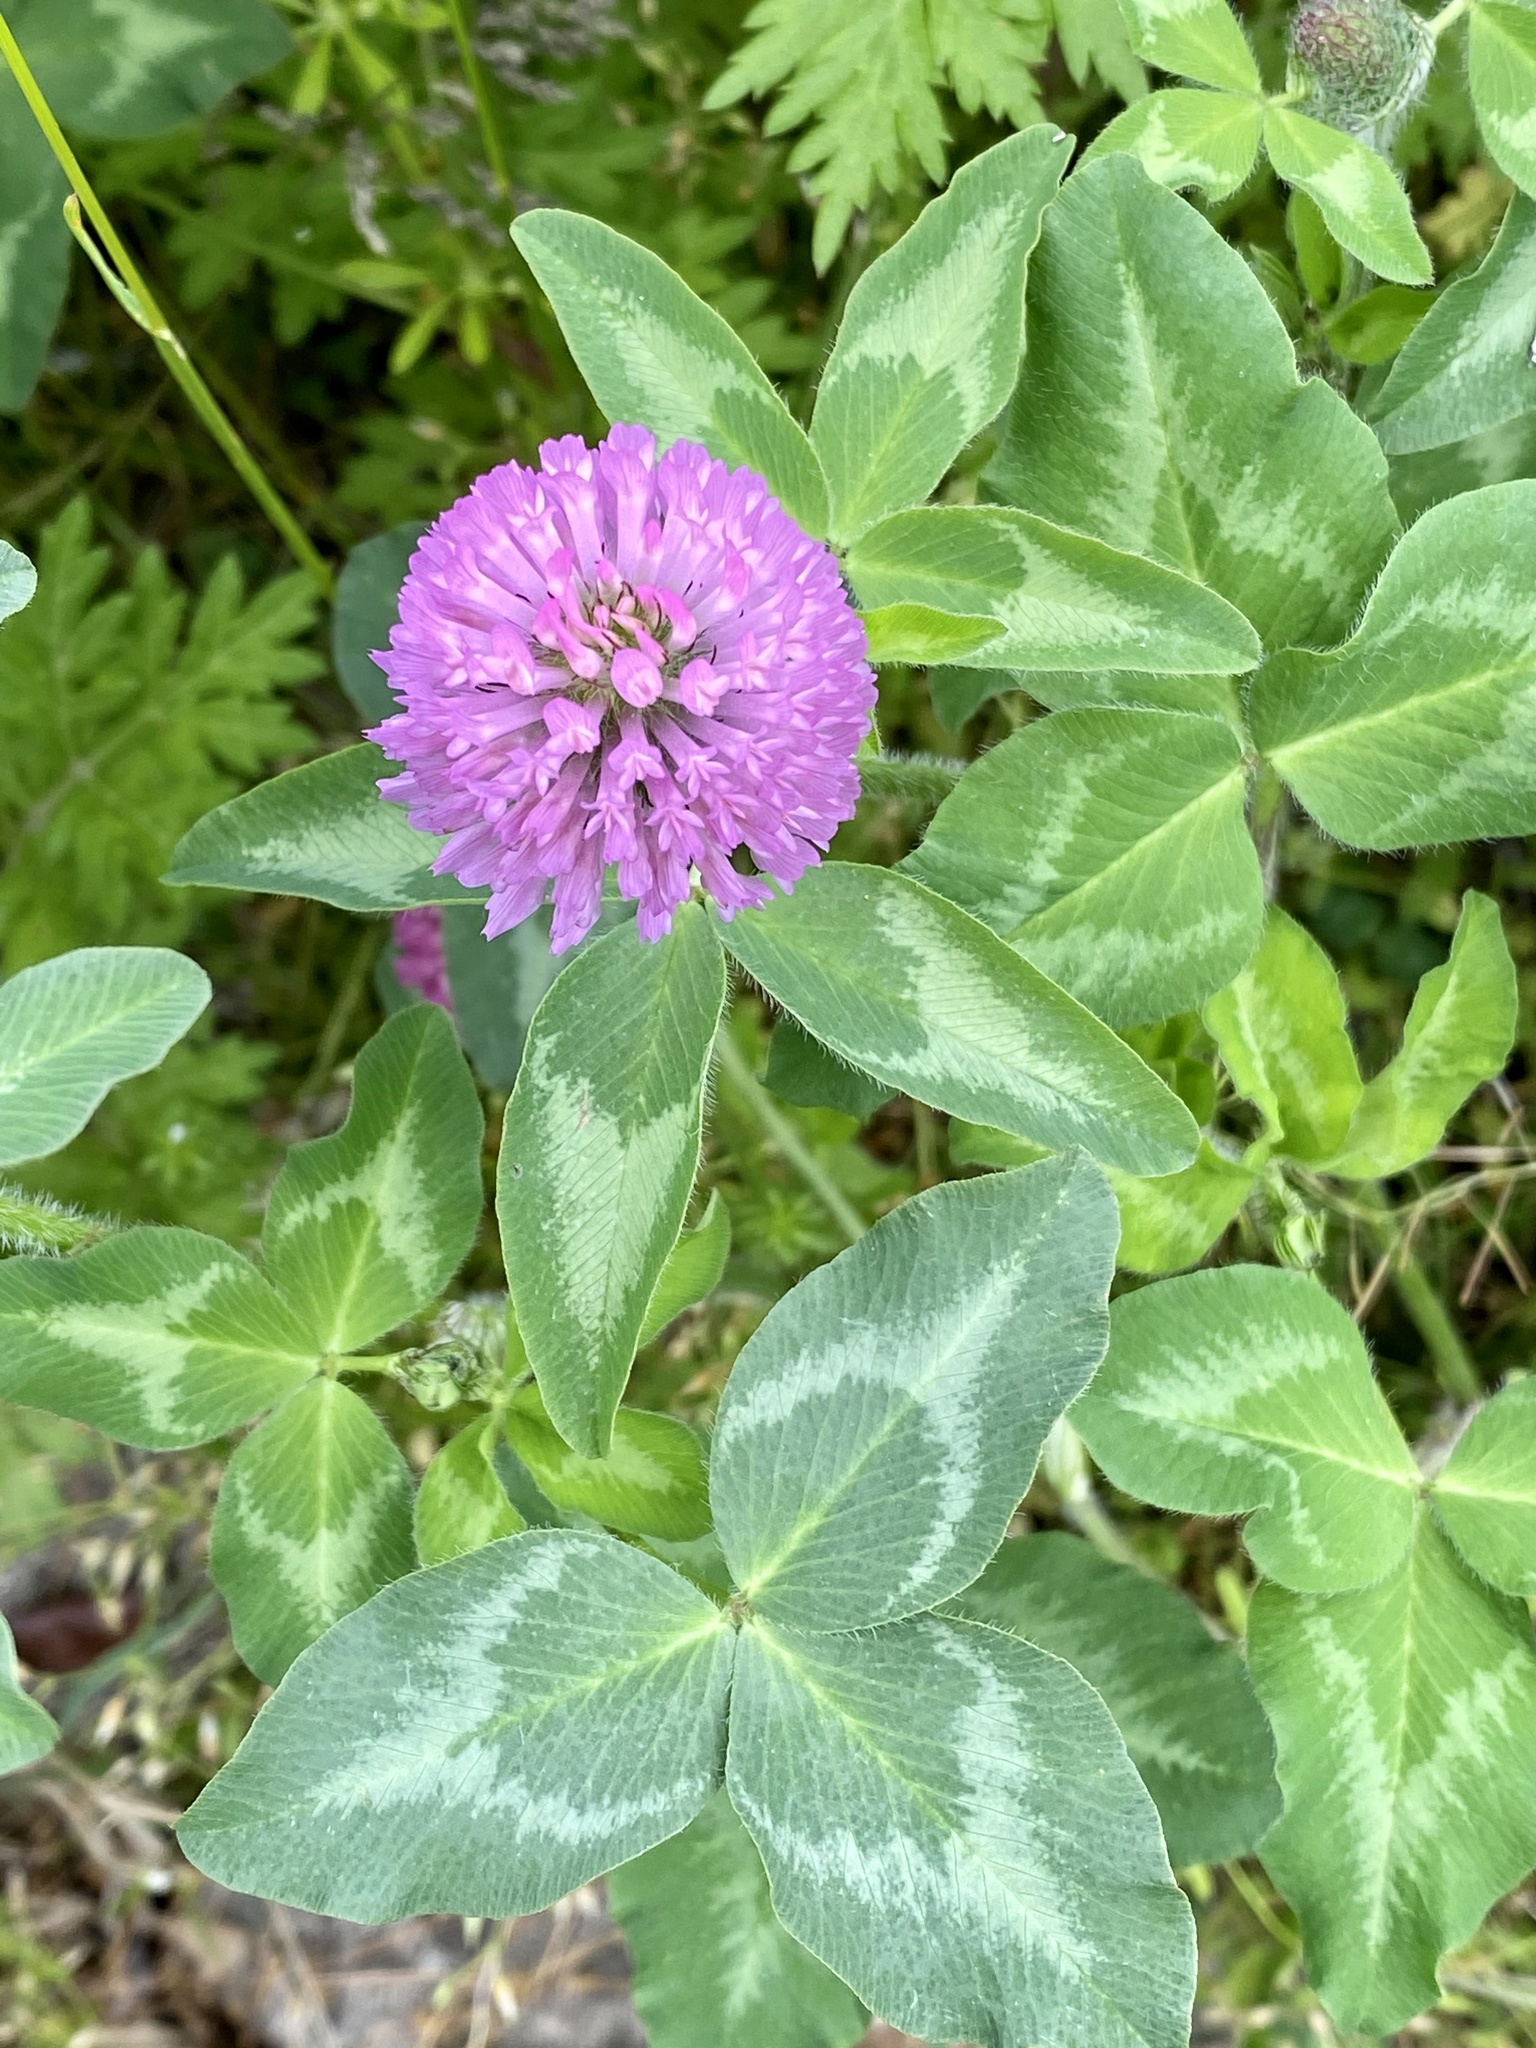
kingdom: Plantae
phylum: Tracheophyta
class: Magnoliopsida
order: Fabales
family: Fabaceae
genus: Trifolium
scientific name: Trifolium pratense
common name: Red clover
